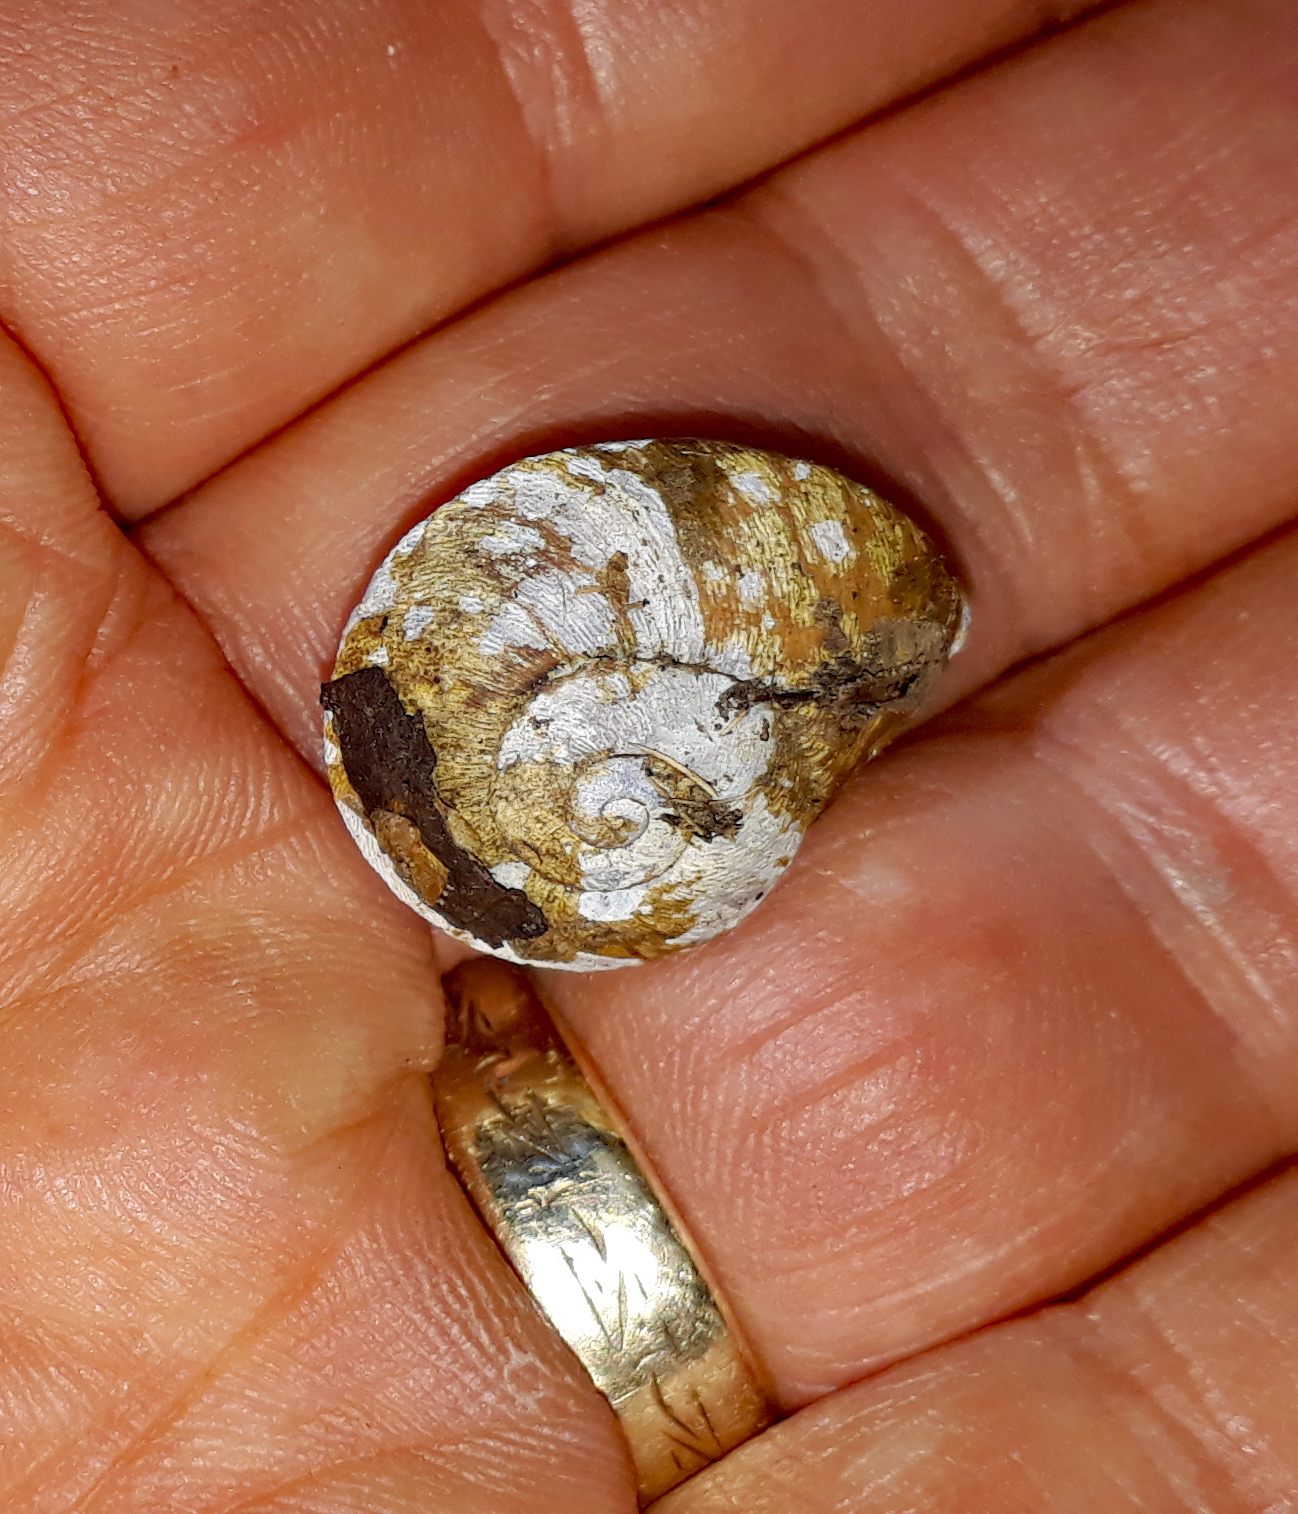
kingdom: Animalia
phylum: Mollusca
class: Gastropoda
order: Stylommatophora
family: Rhytididae
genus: Amborhytida
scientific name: Amborhytida dunniae
